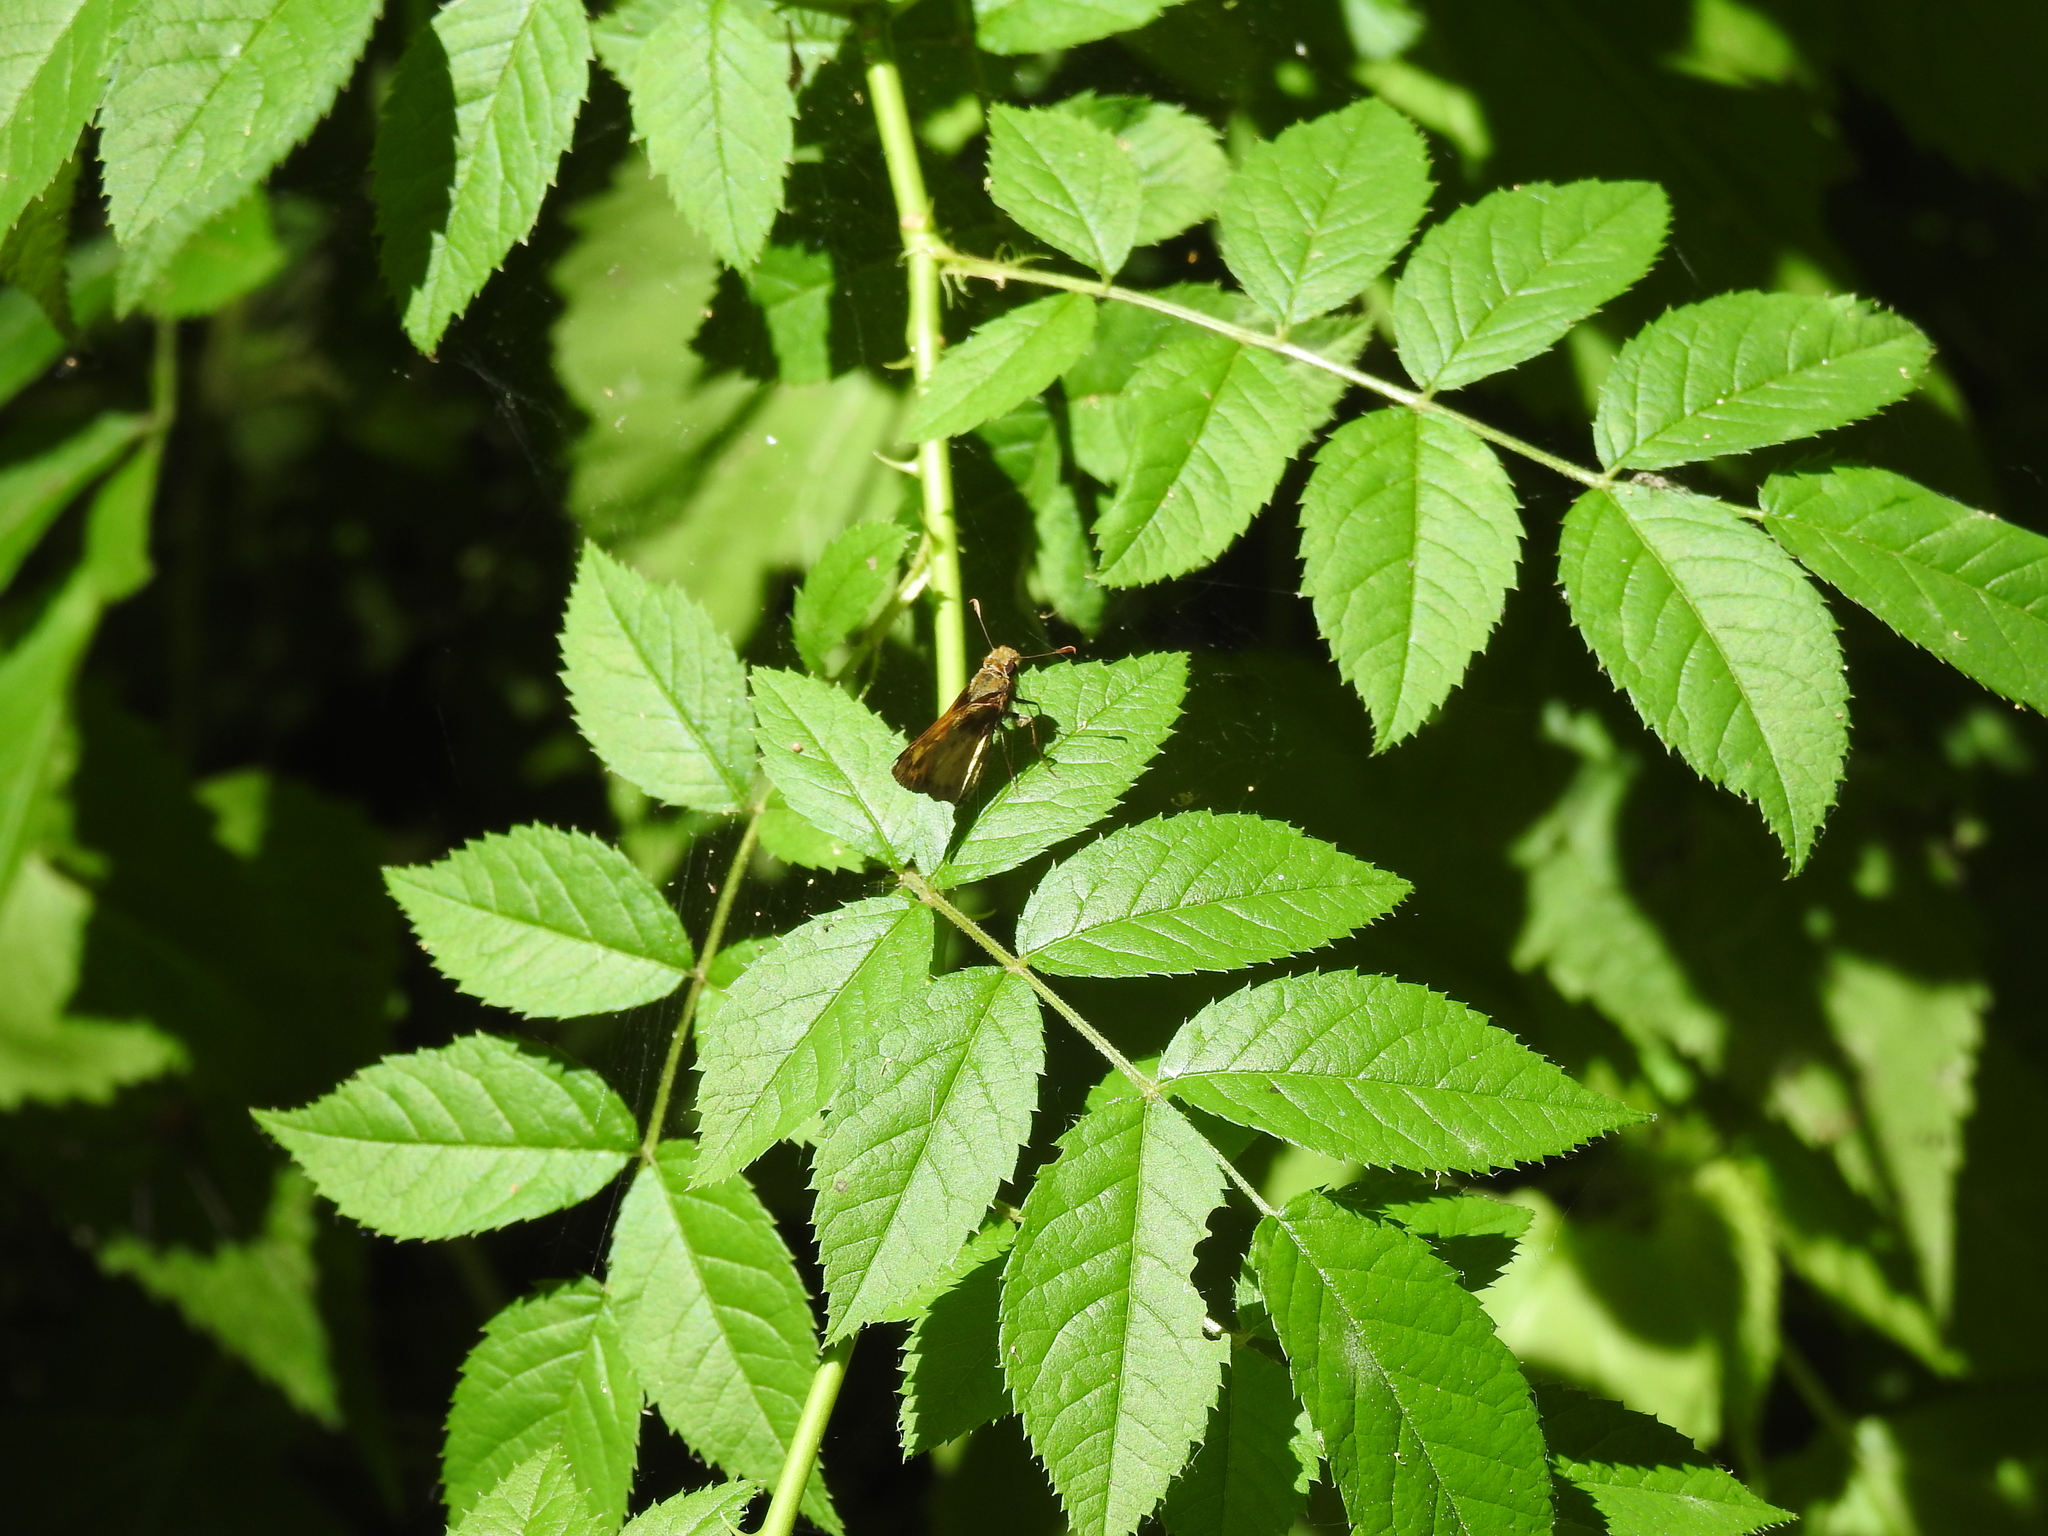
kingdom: Animalia
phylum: Arthropoda
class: Insecta
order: Lepidoptera
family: Hesperiidae
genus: Lon
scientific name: Lon zabulon
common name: Zabulon skipper
